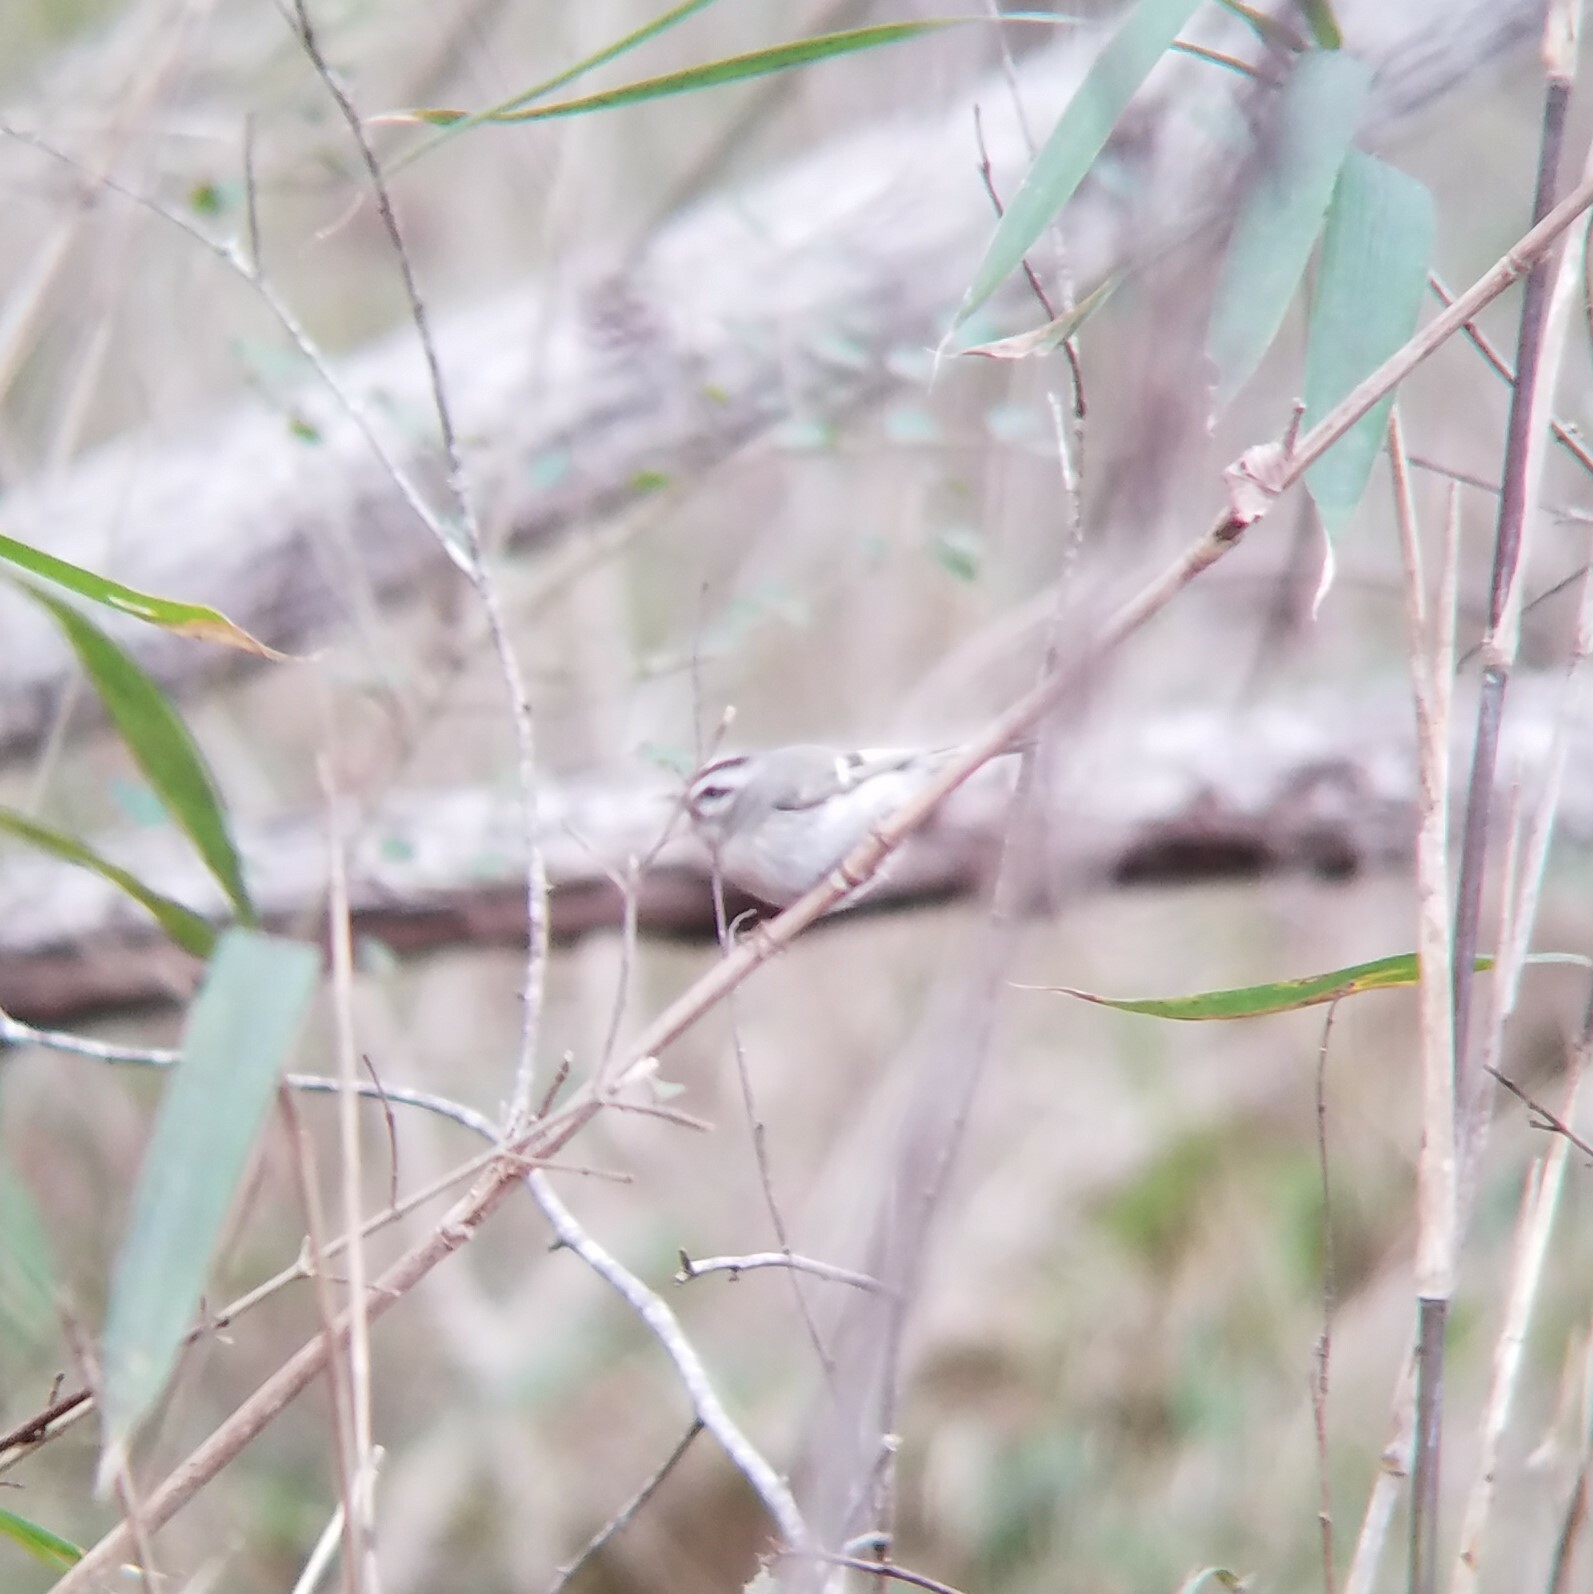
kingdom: Animalia
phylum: Chordata
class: Aves
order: Passeriformes
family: Regulidae
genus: Regulus
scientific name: Regulus satrapa
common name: Golden-crowned kinglet
